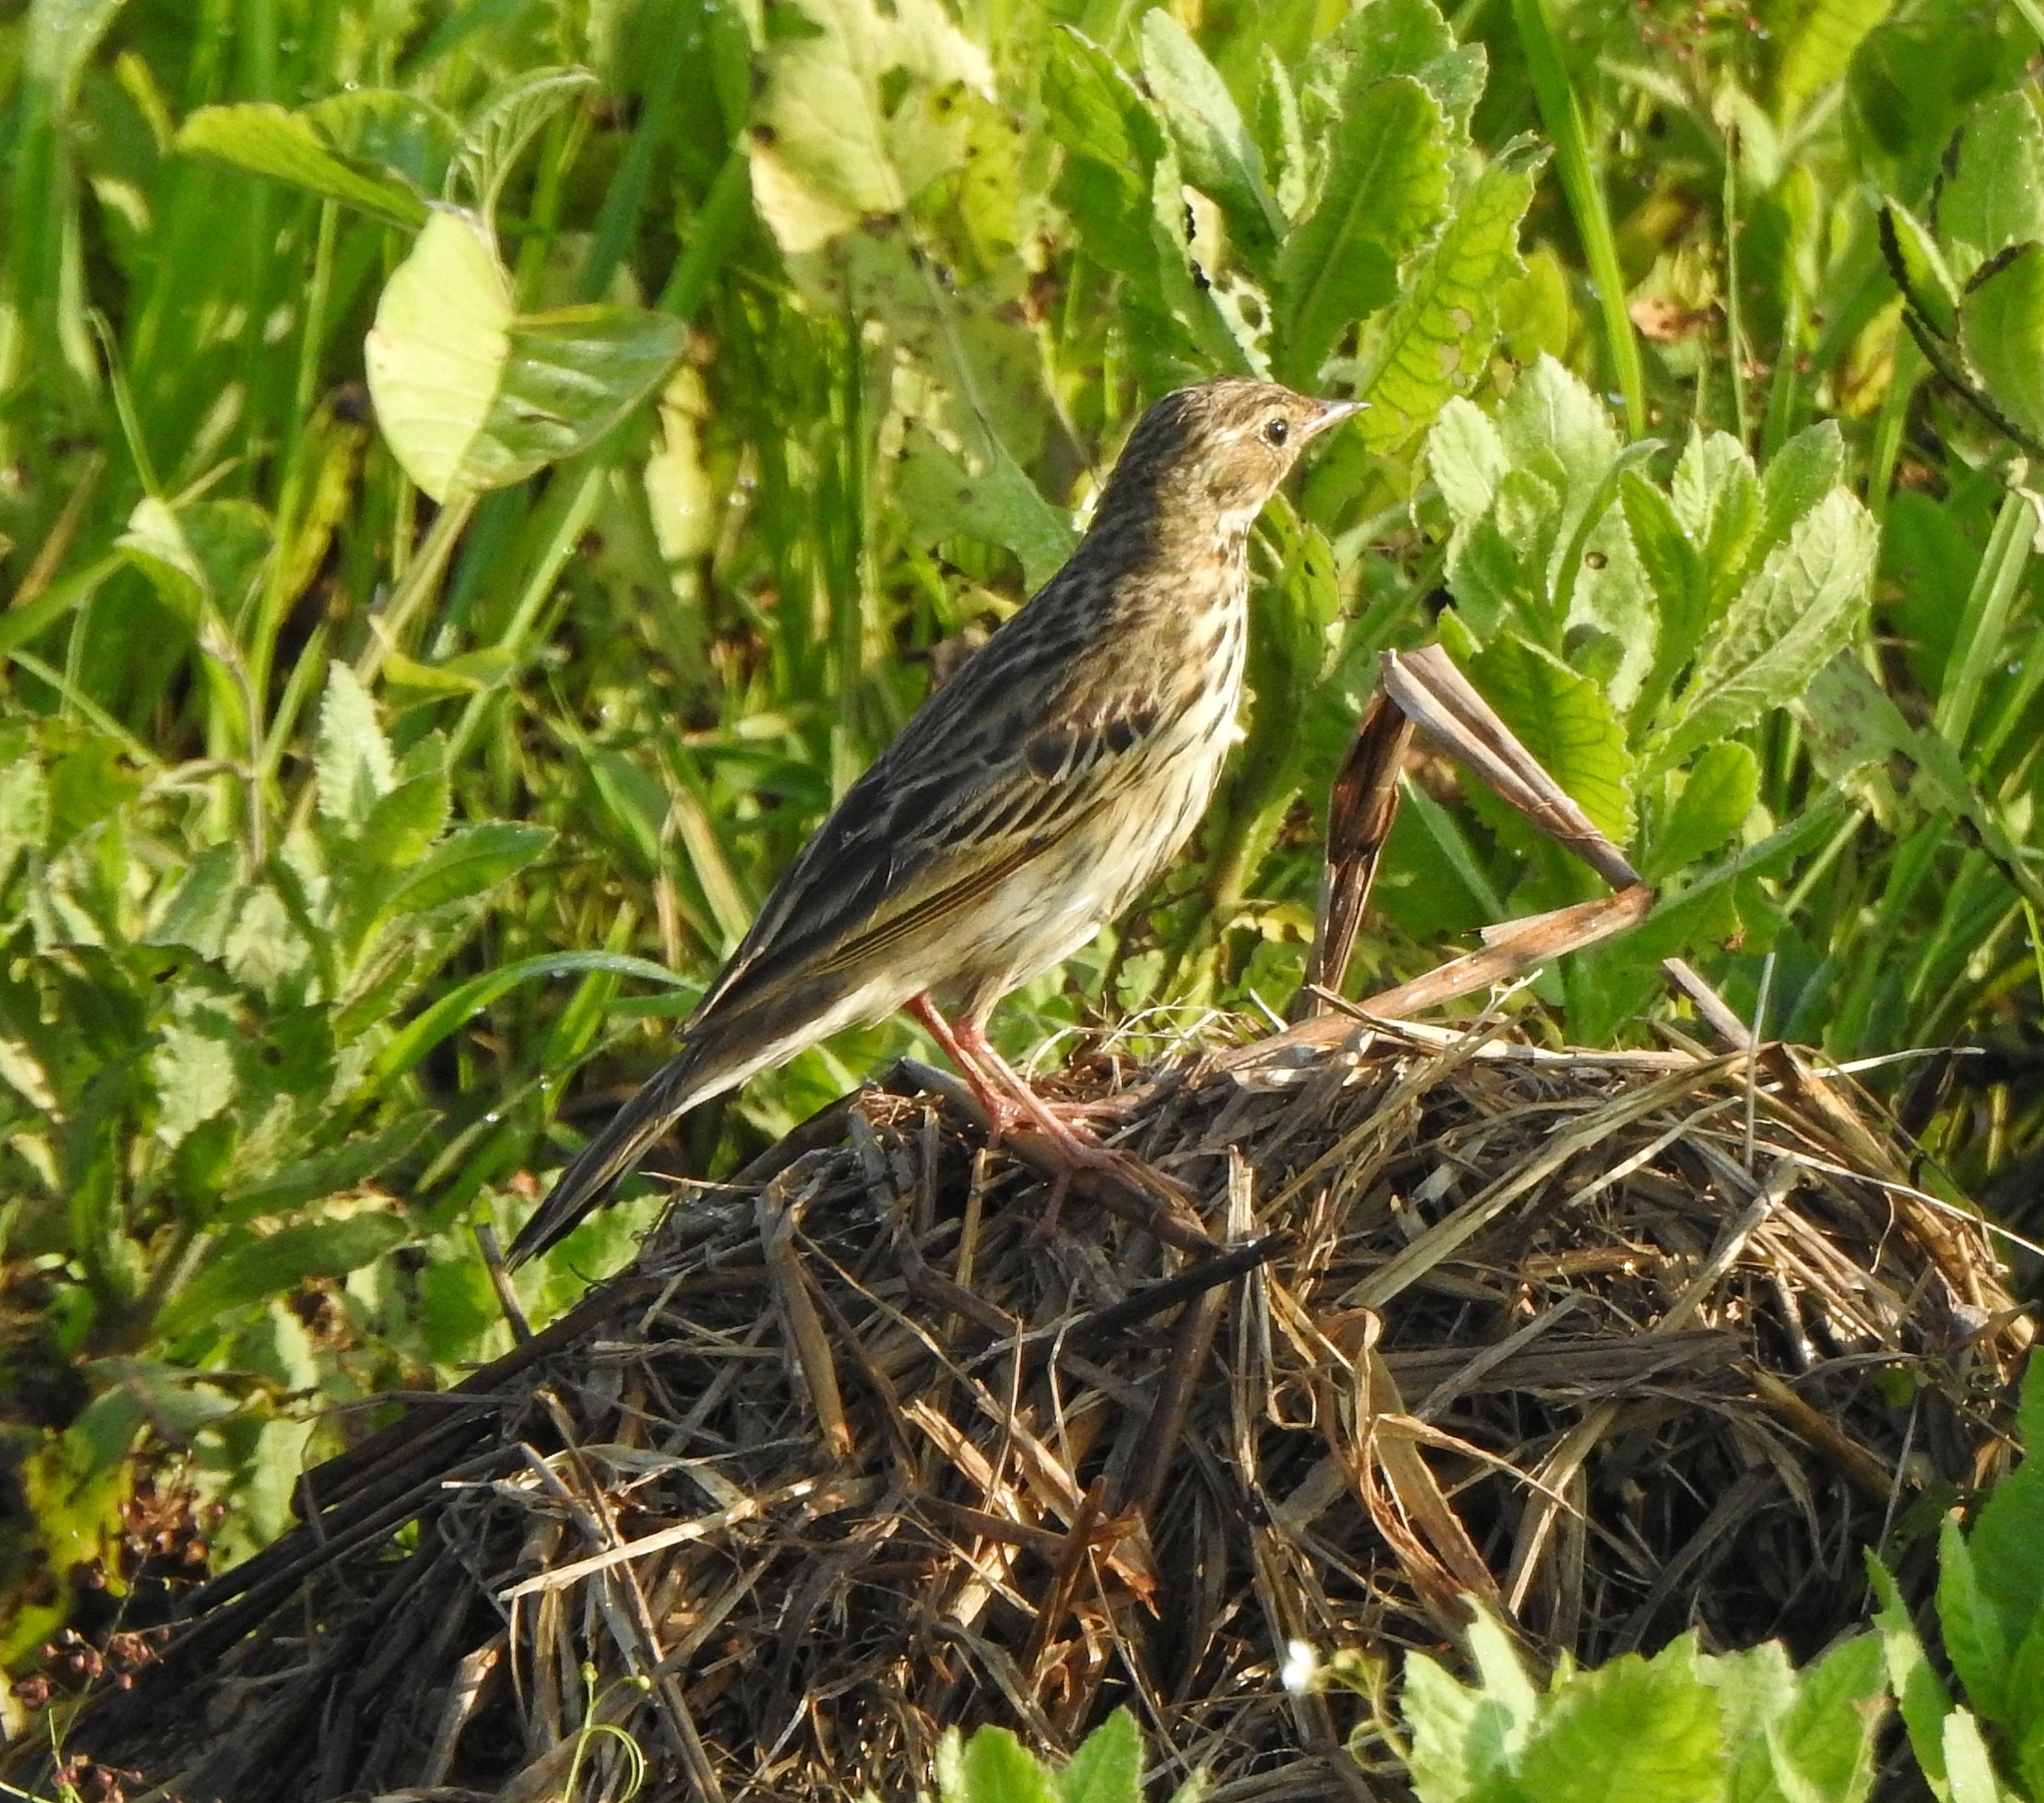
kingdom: Animalia
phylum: Chordata
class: Aves
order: Passeriformes
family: Motacillidae
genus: Anthus
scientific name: Anthus trivialis
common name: Tree pipit
